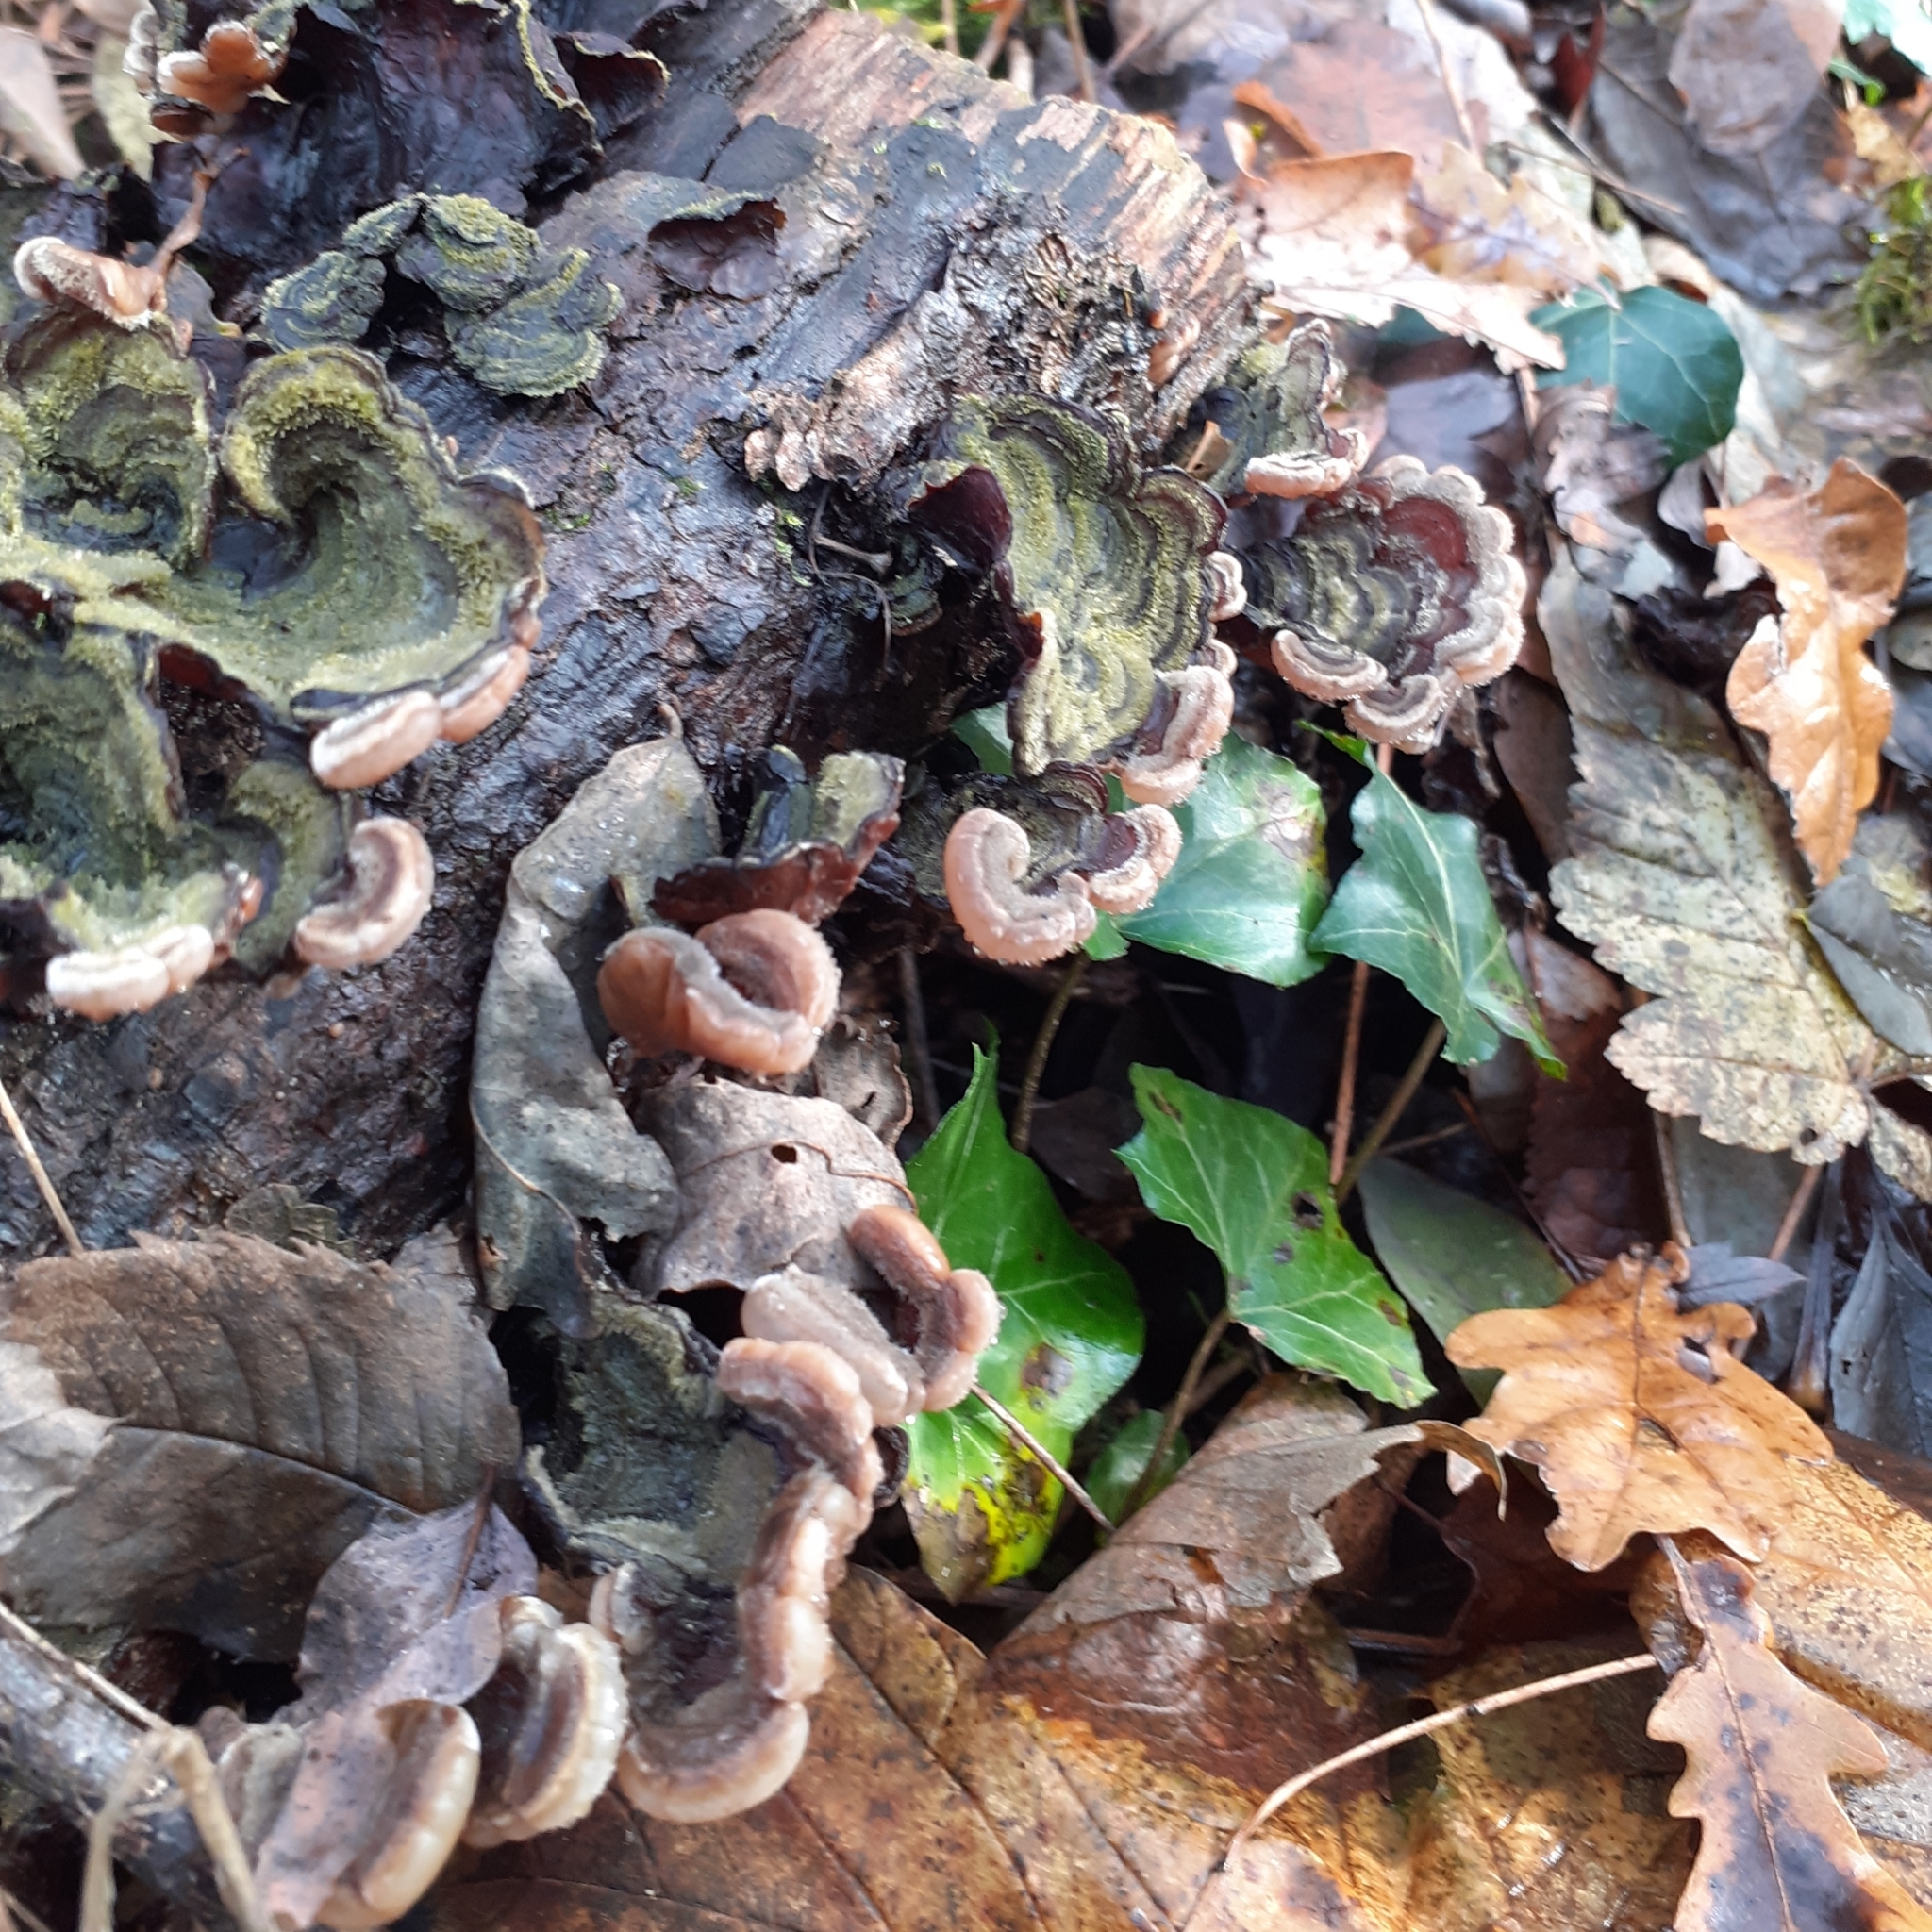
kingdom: Fungi
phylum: Basidiomycota
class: Agaricomycetes
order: Auriculariales
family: Auriculariaceae
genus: Auricularia
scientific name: Auricularia mesenterica
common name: Tripe fungus
